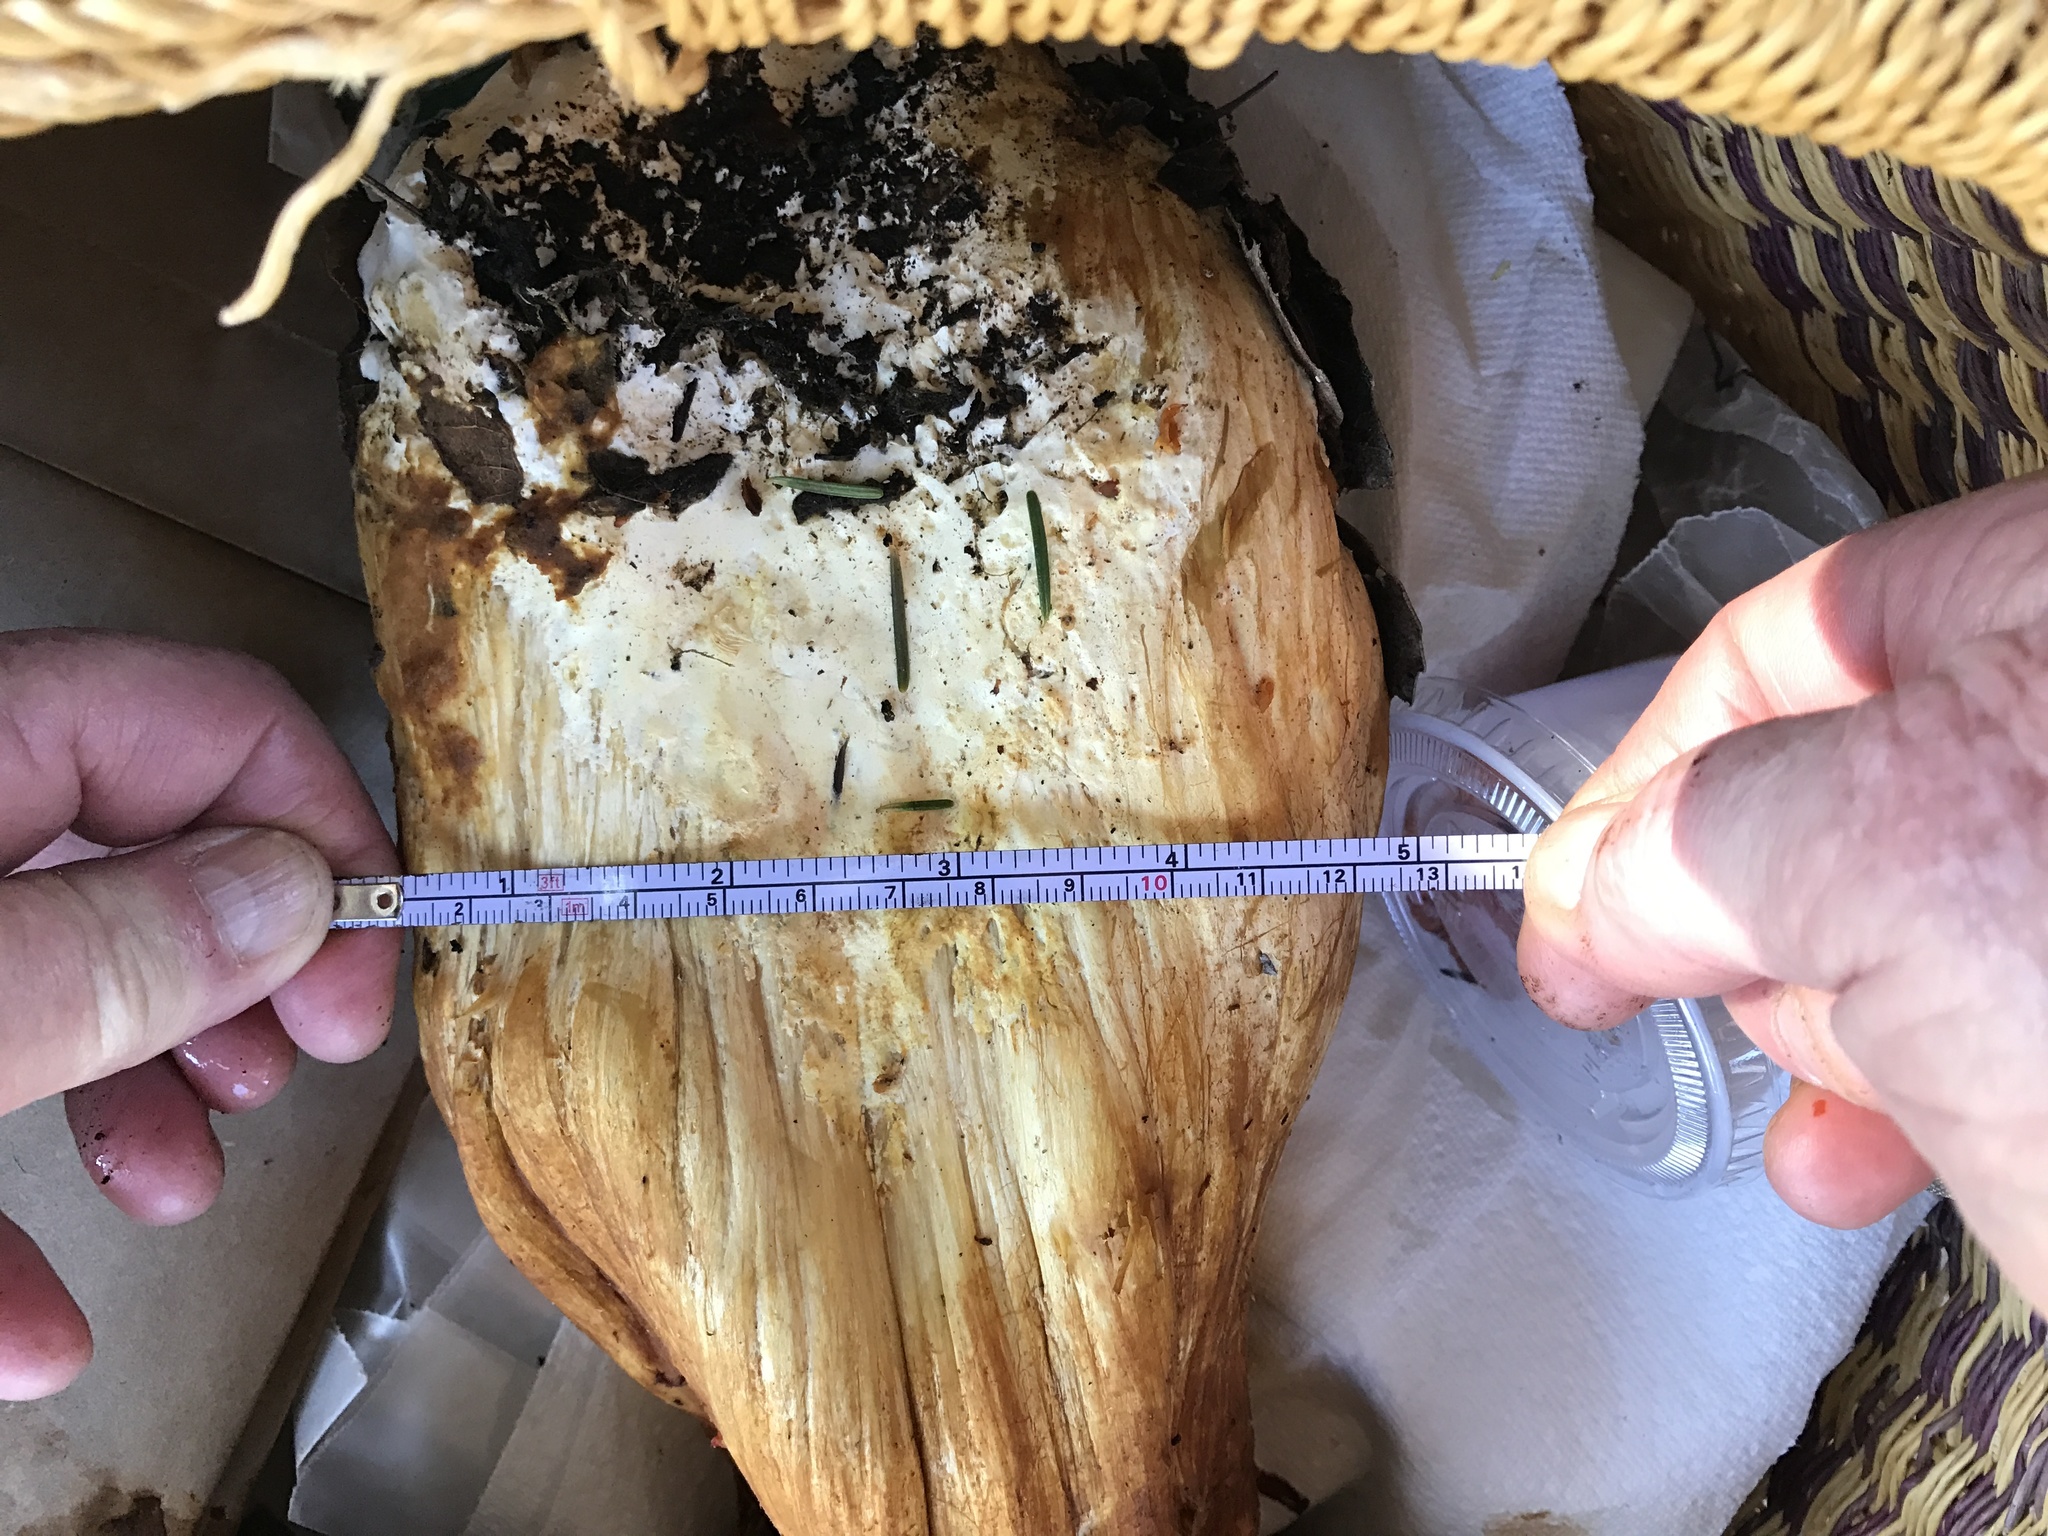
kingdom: Fungi
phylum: Basidiomycota
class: Agaricomycetes
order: Agaricales
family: Hymenogastraceae
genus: Gymnopilus
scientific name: Gymnopilus ventricosus
